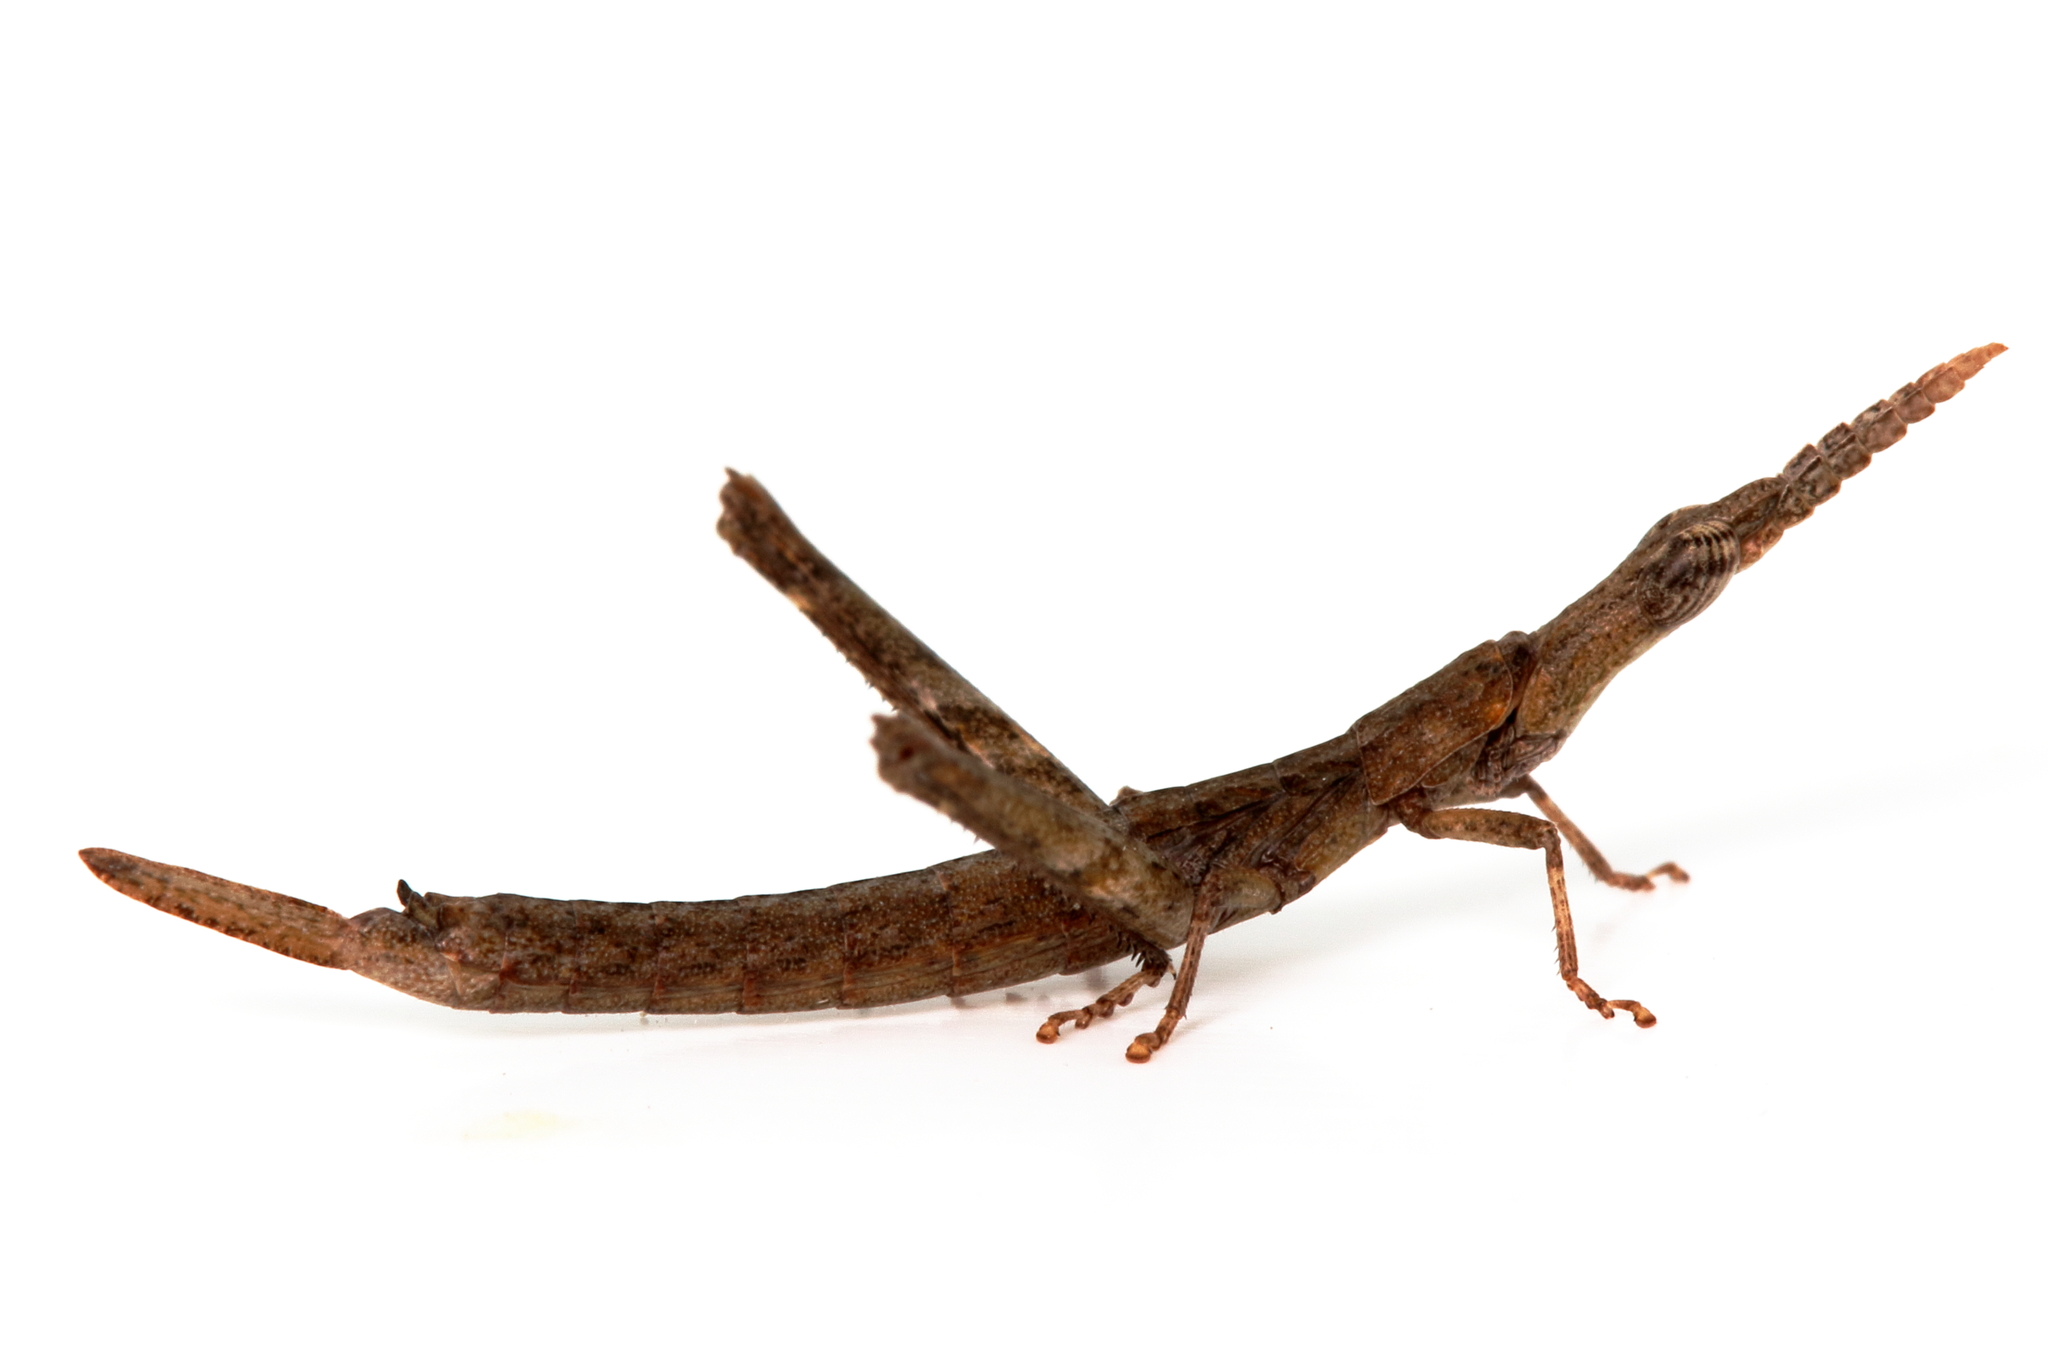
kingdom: Animalia
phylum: Arthropoda
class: Insecta
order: Orthoptera
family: Morabidae
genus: Vandiemenella
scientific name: Vandiemenella viatica
